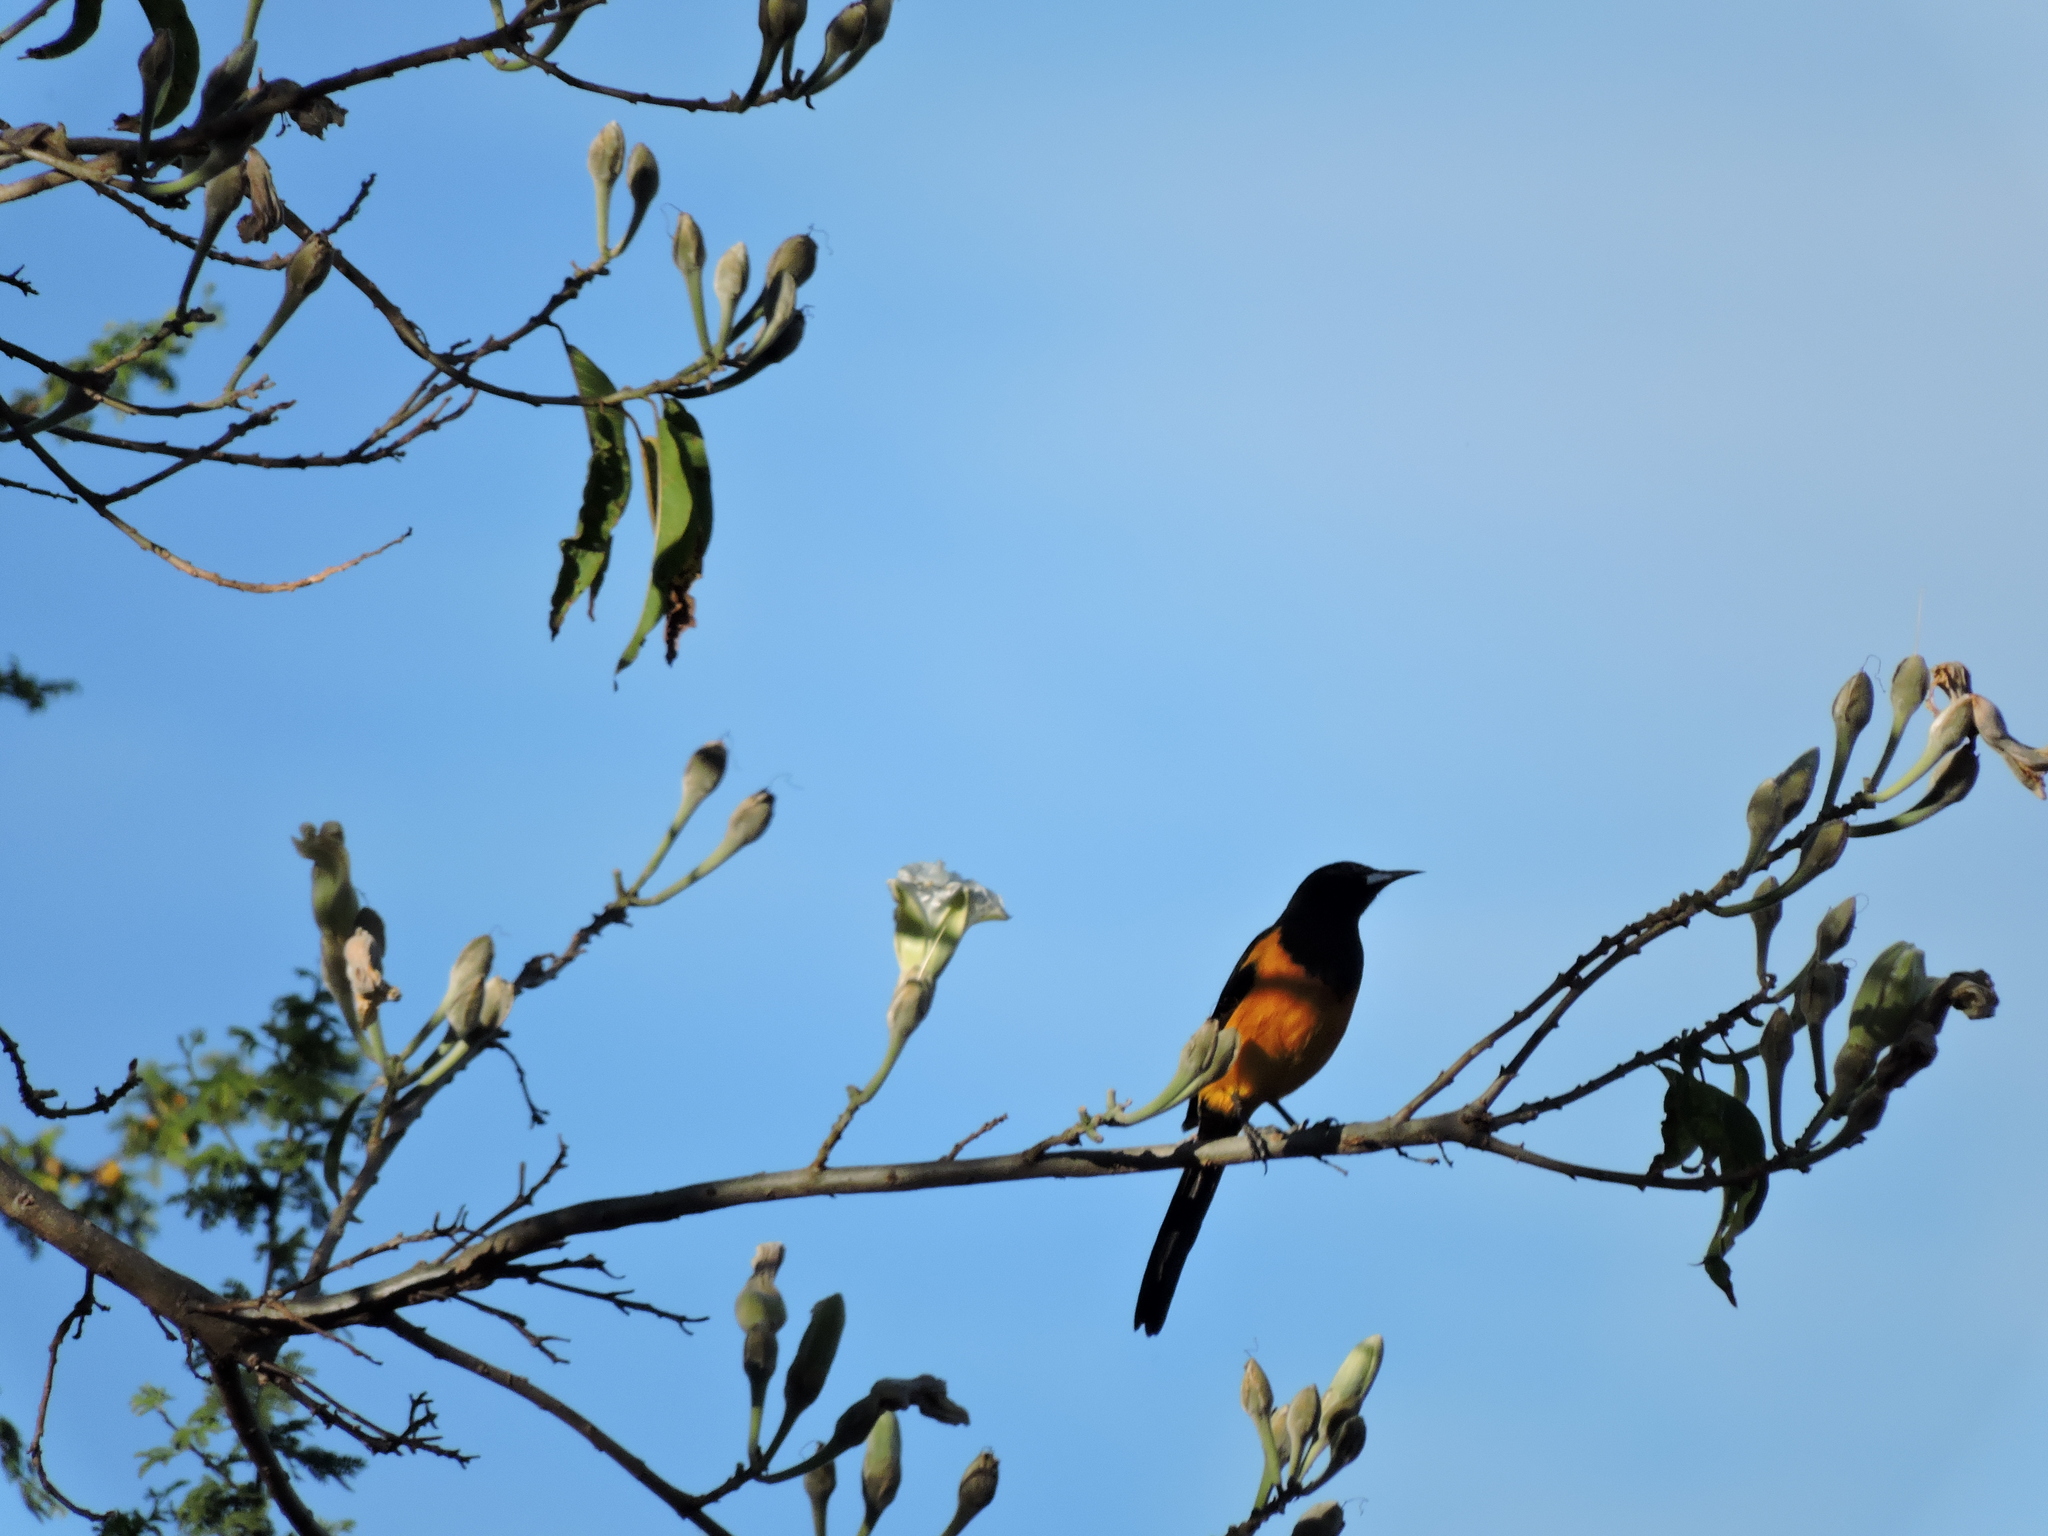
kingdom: Animalia
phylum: Chordata
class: Aves
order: Passeriformes
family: Icteridae
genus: Icterus
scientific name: Icterus wagleri
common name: Black-vented oriole
